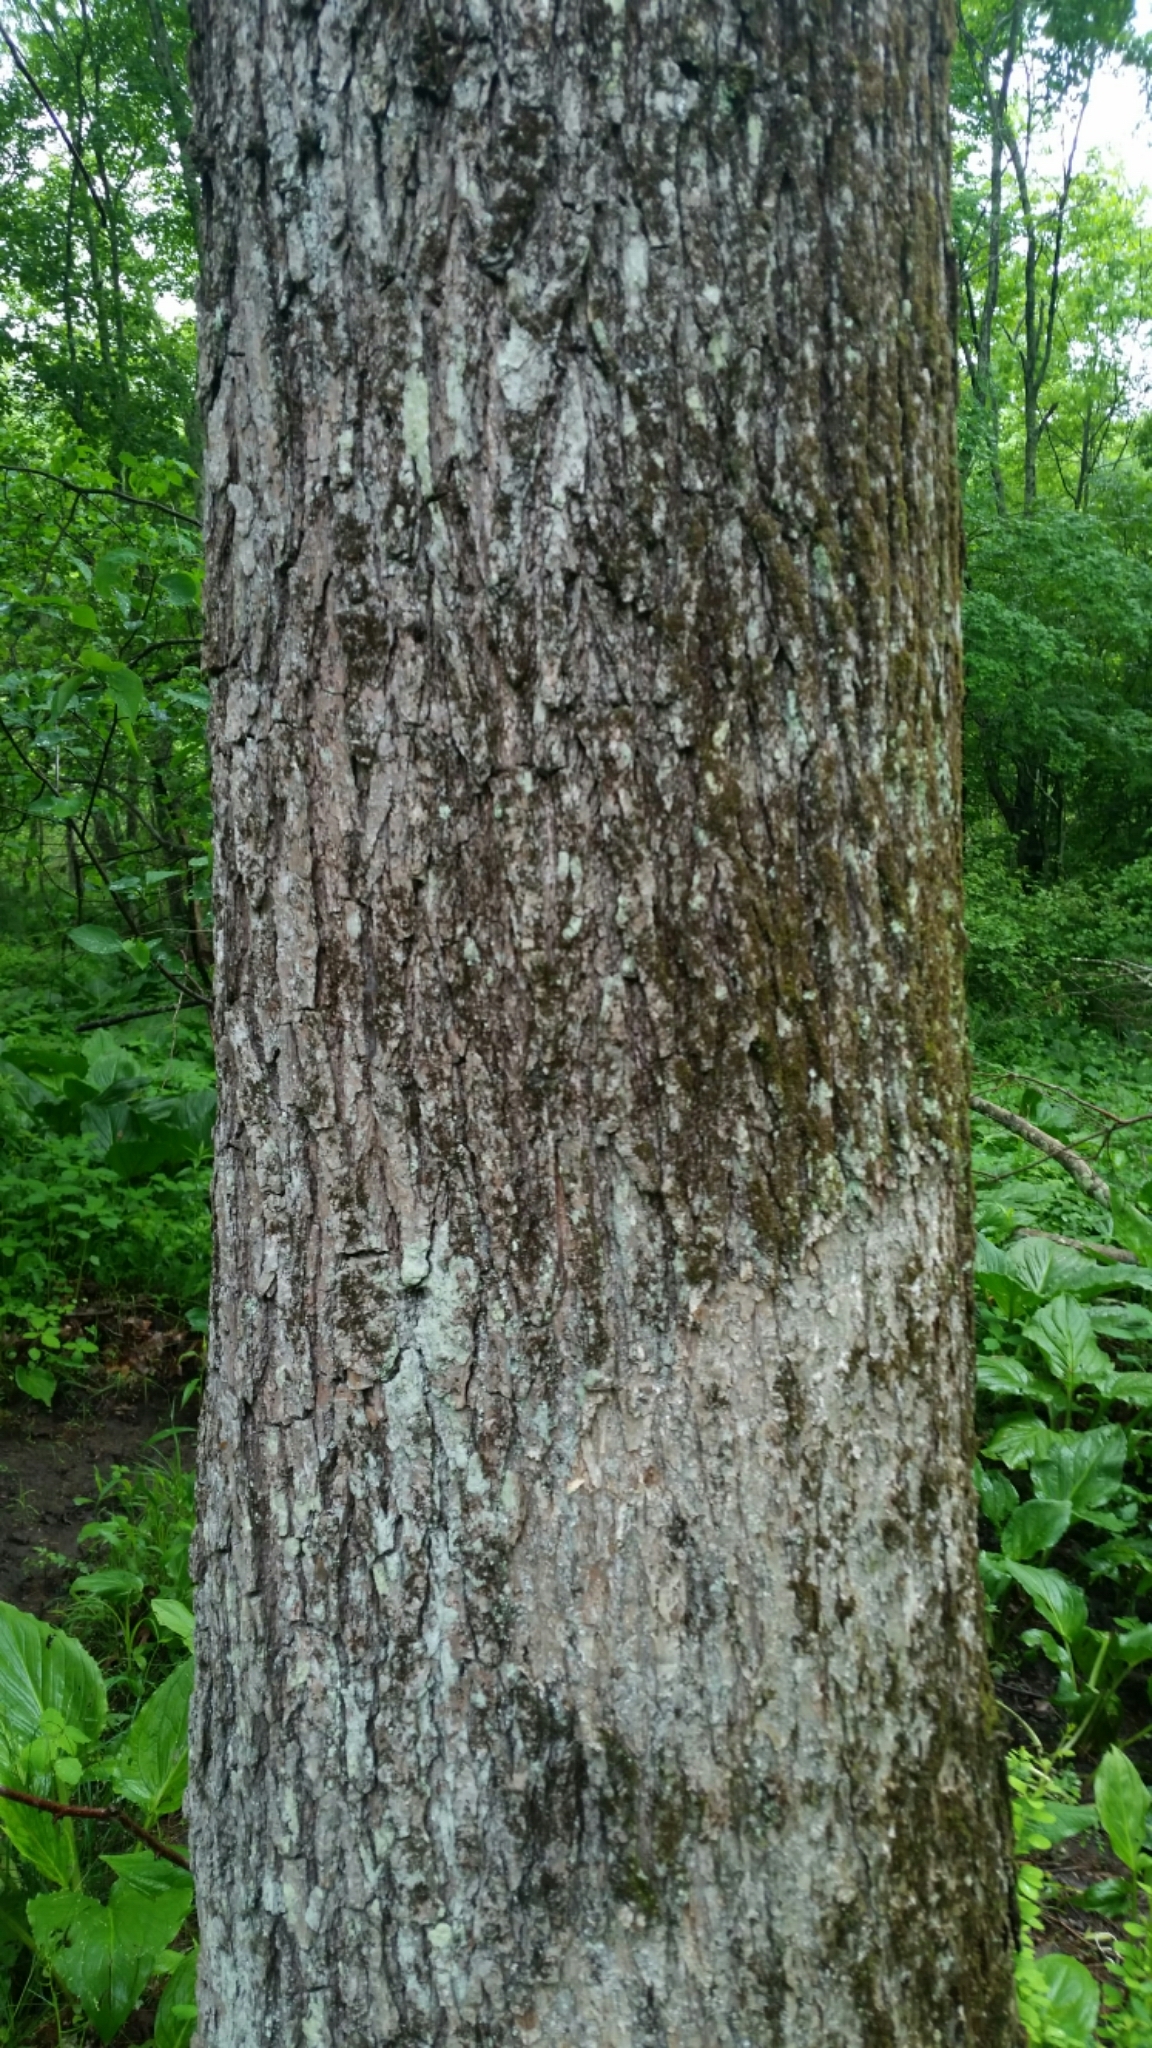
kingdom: Plantae
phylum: Tracheophyta
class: Magnoliopsida
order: Fagales
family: Fagaceae
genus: Quercus
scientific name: Quercus bicolor
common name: Swamp white oak
